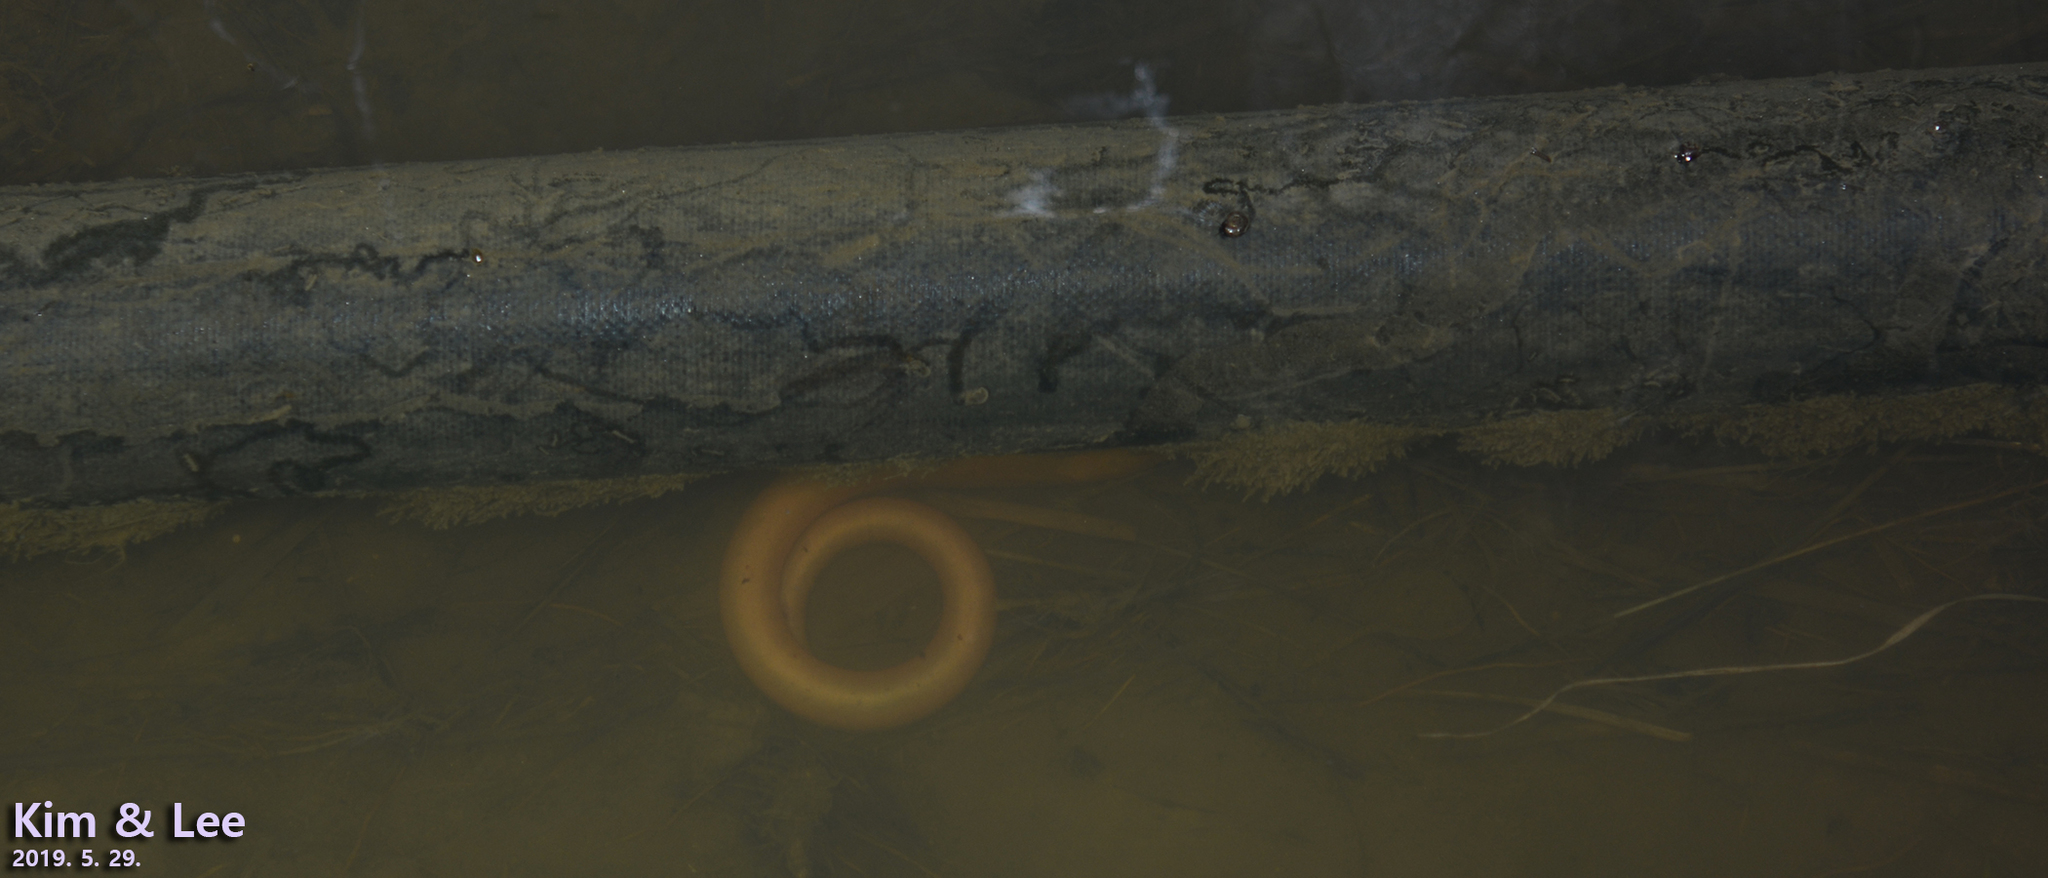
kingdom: Animalia
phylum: Chordata
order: Synbranchiformes
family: Synbranchidae
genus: Monopterus
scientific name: Monopterus albus
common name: Asian swamp eel
